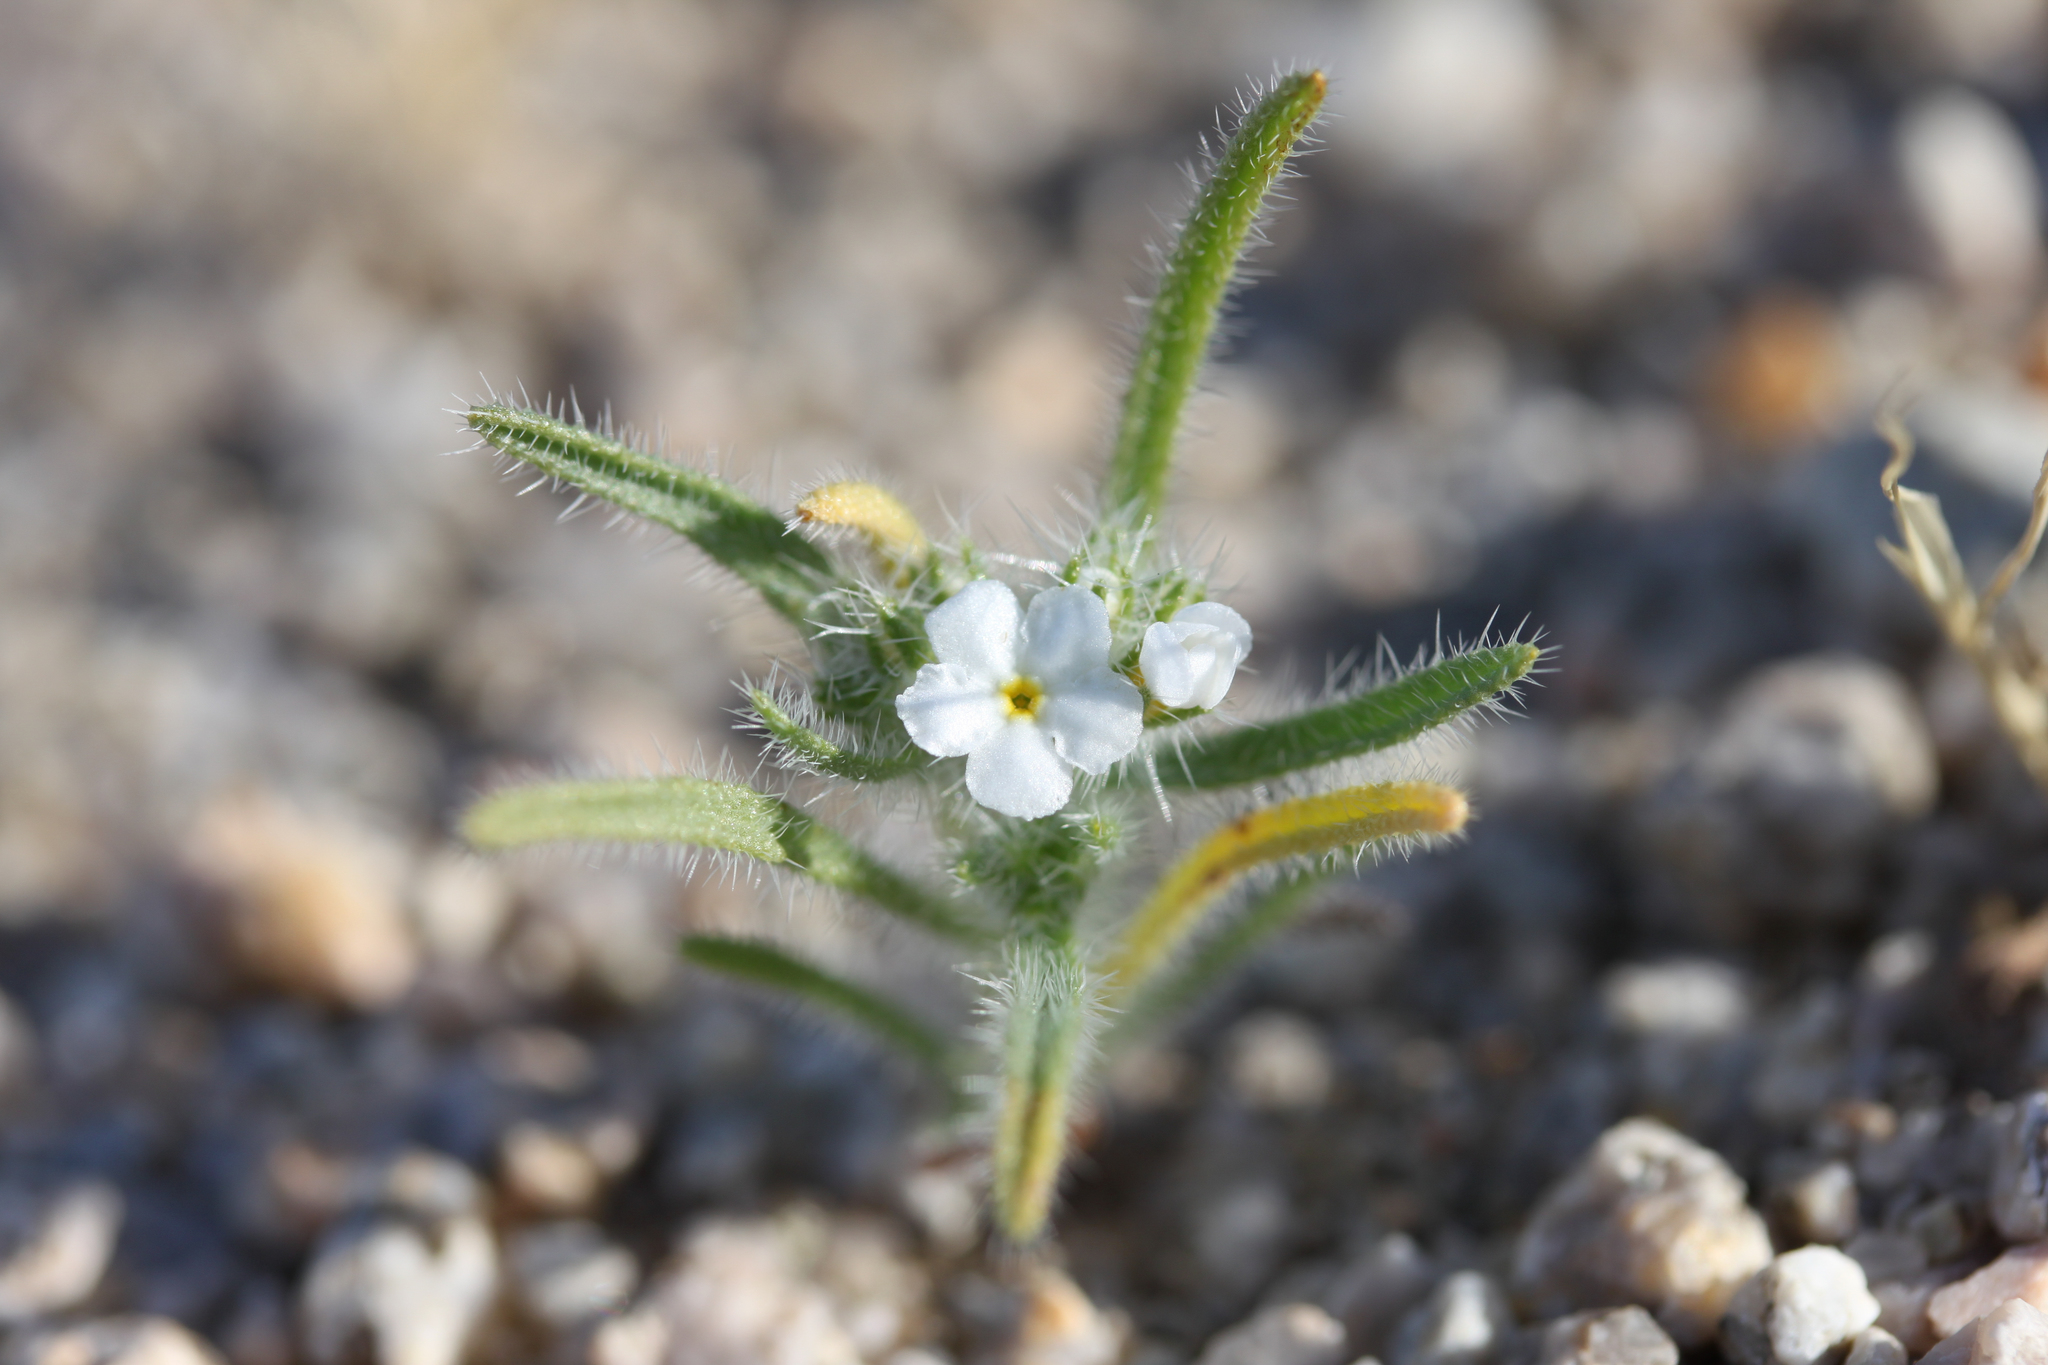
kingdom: Plantae
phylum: Tracheophyta
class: Magnoliopsida
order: Boraginales
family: Boraginaceae
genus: Johnstonella
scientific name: Johnstonella angustifolia
